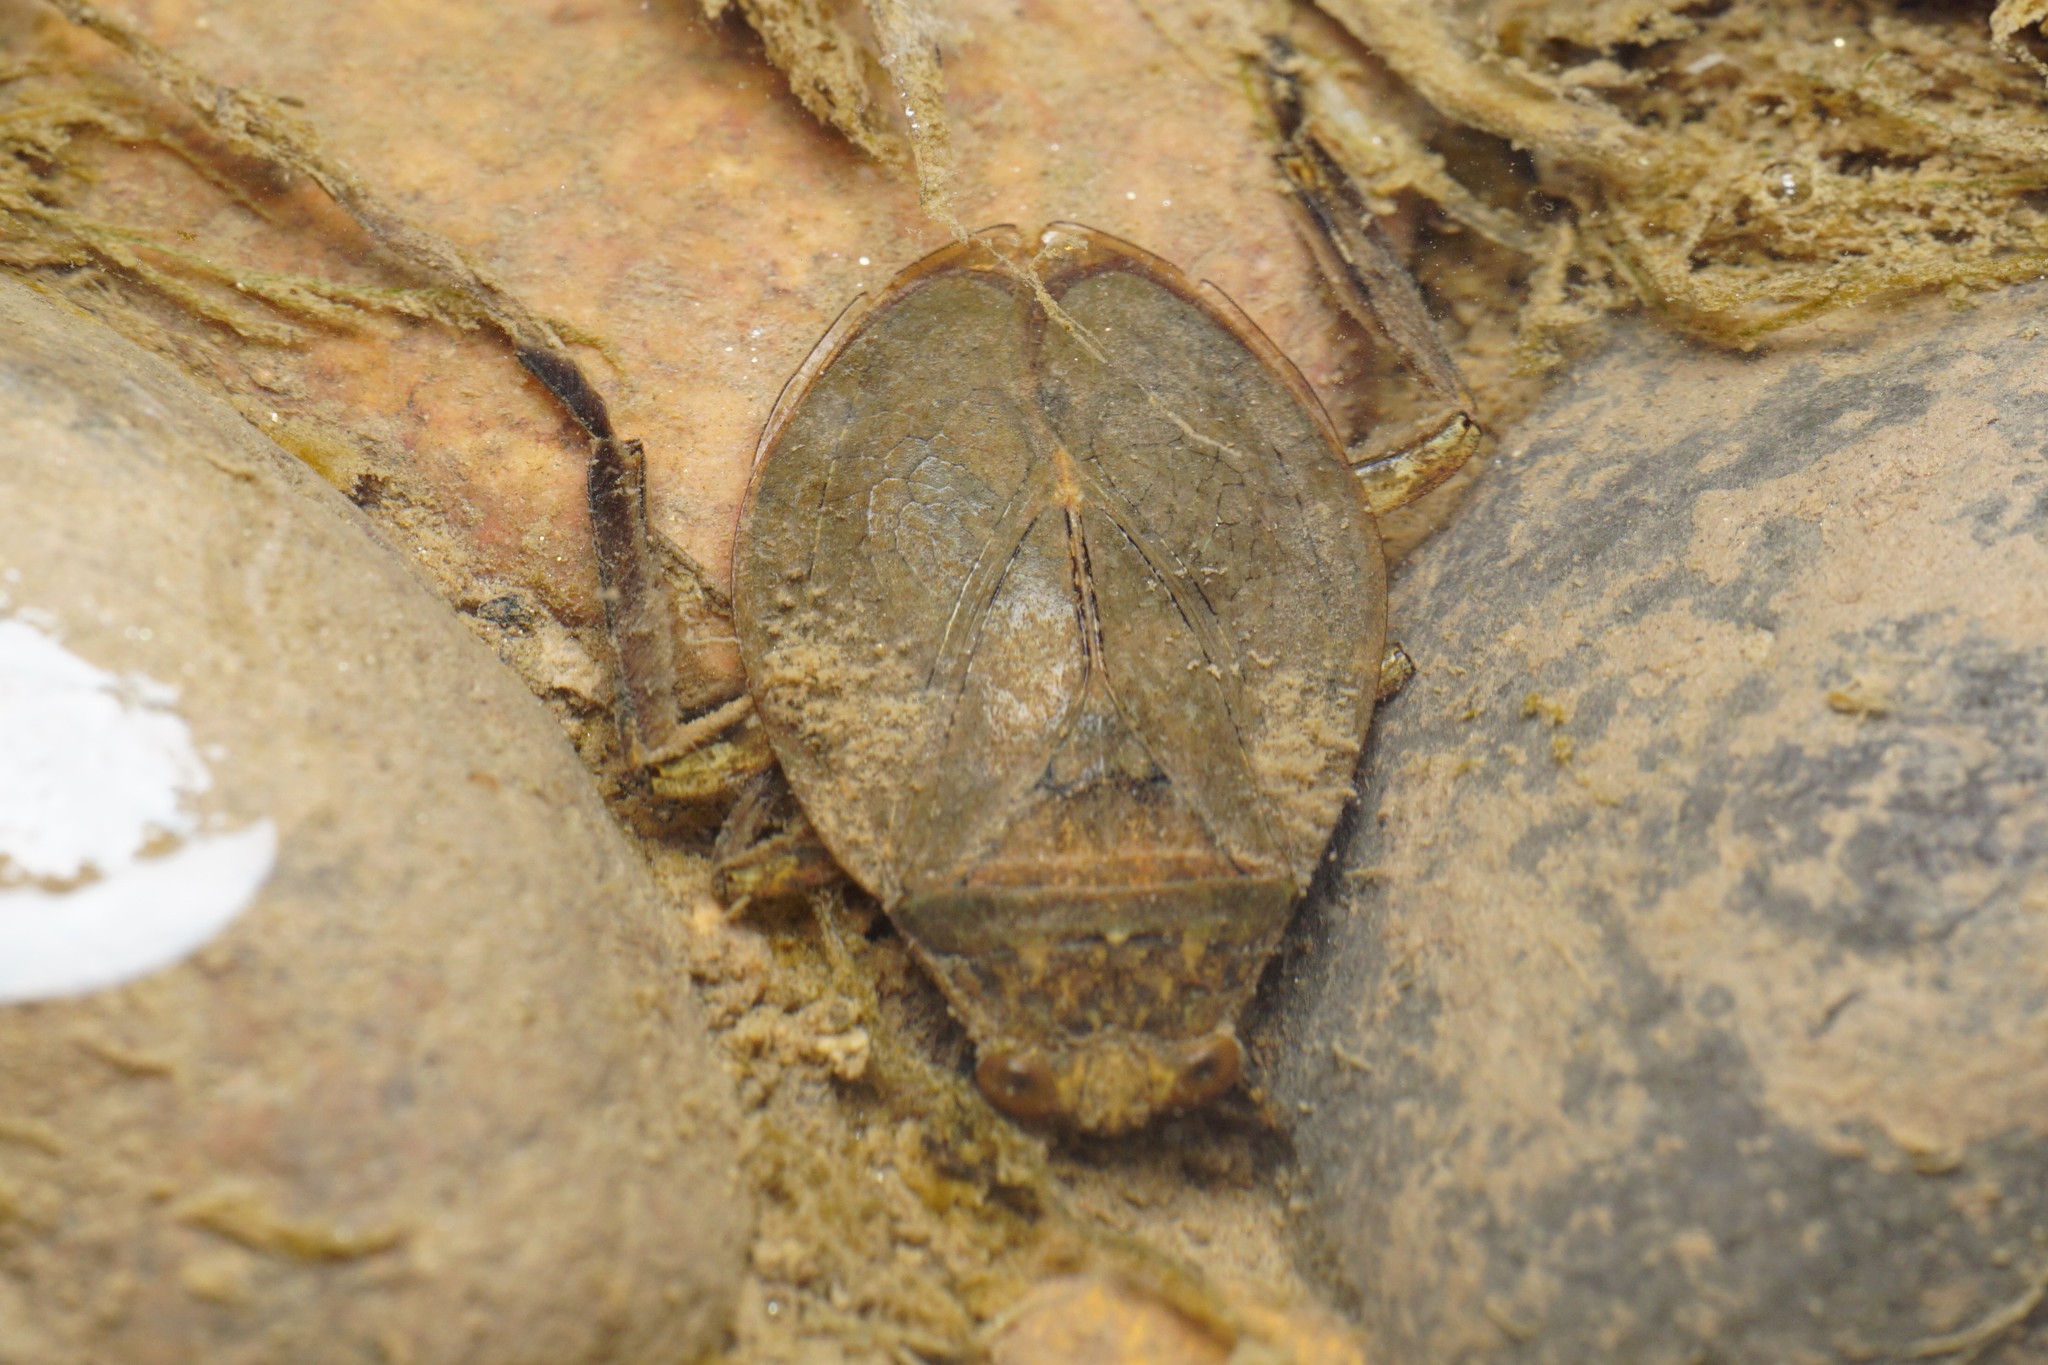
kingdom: Animalia
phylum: Arthropoda
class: Insecta
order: Hemiptera
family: Belostomatidae
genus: Abedus
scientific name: Abedus
